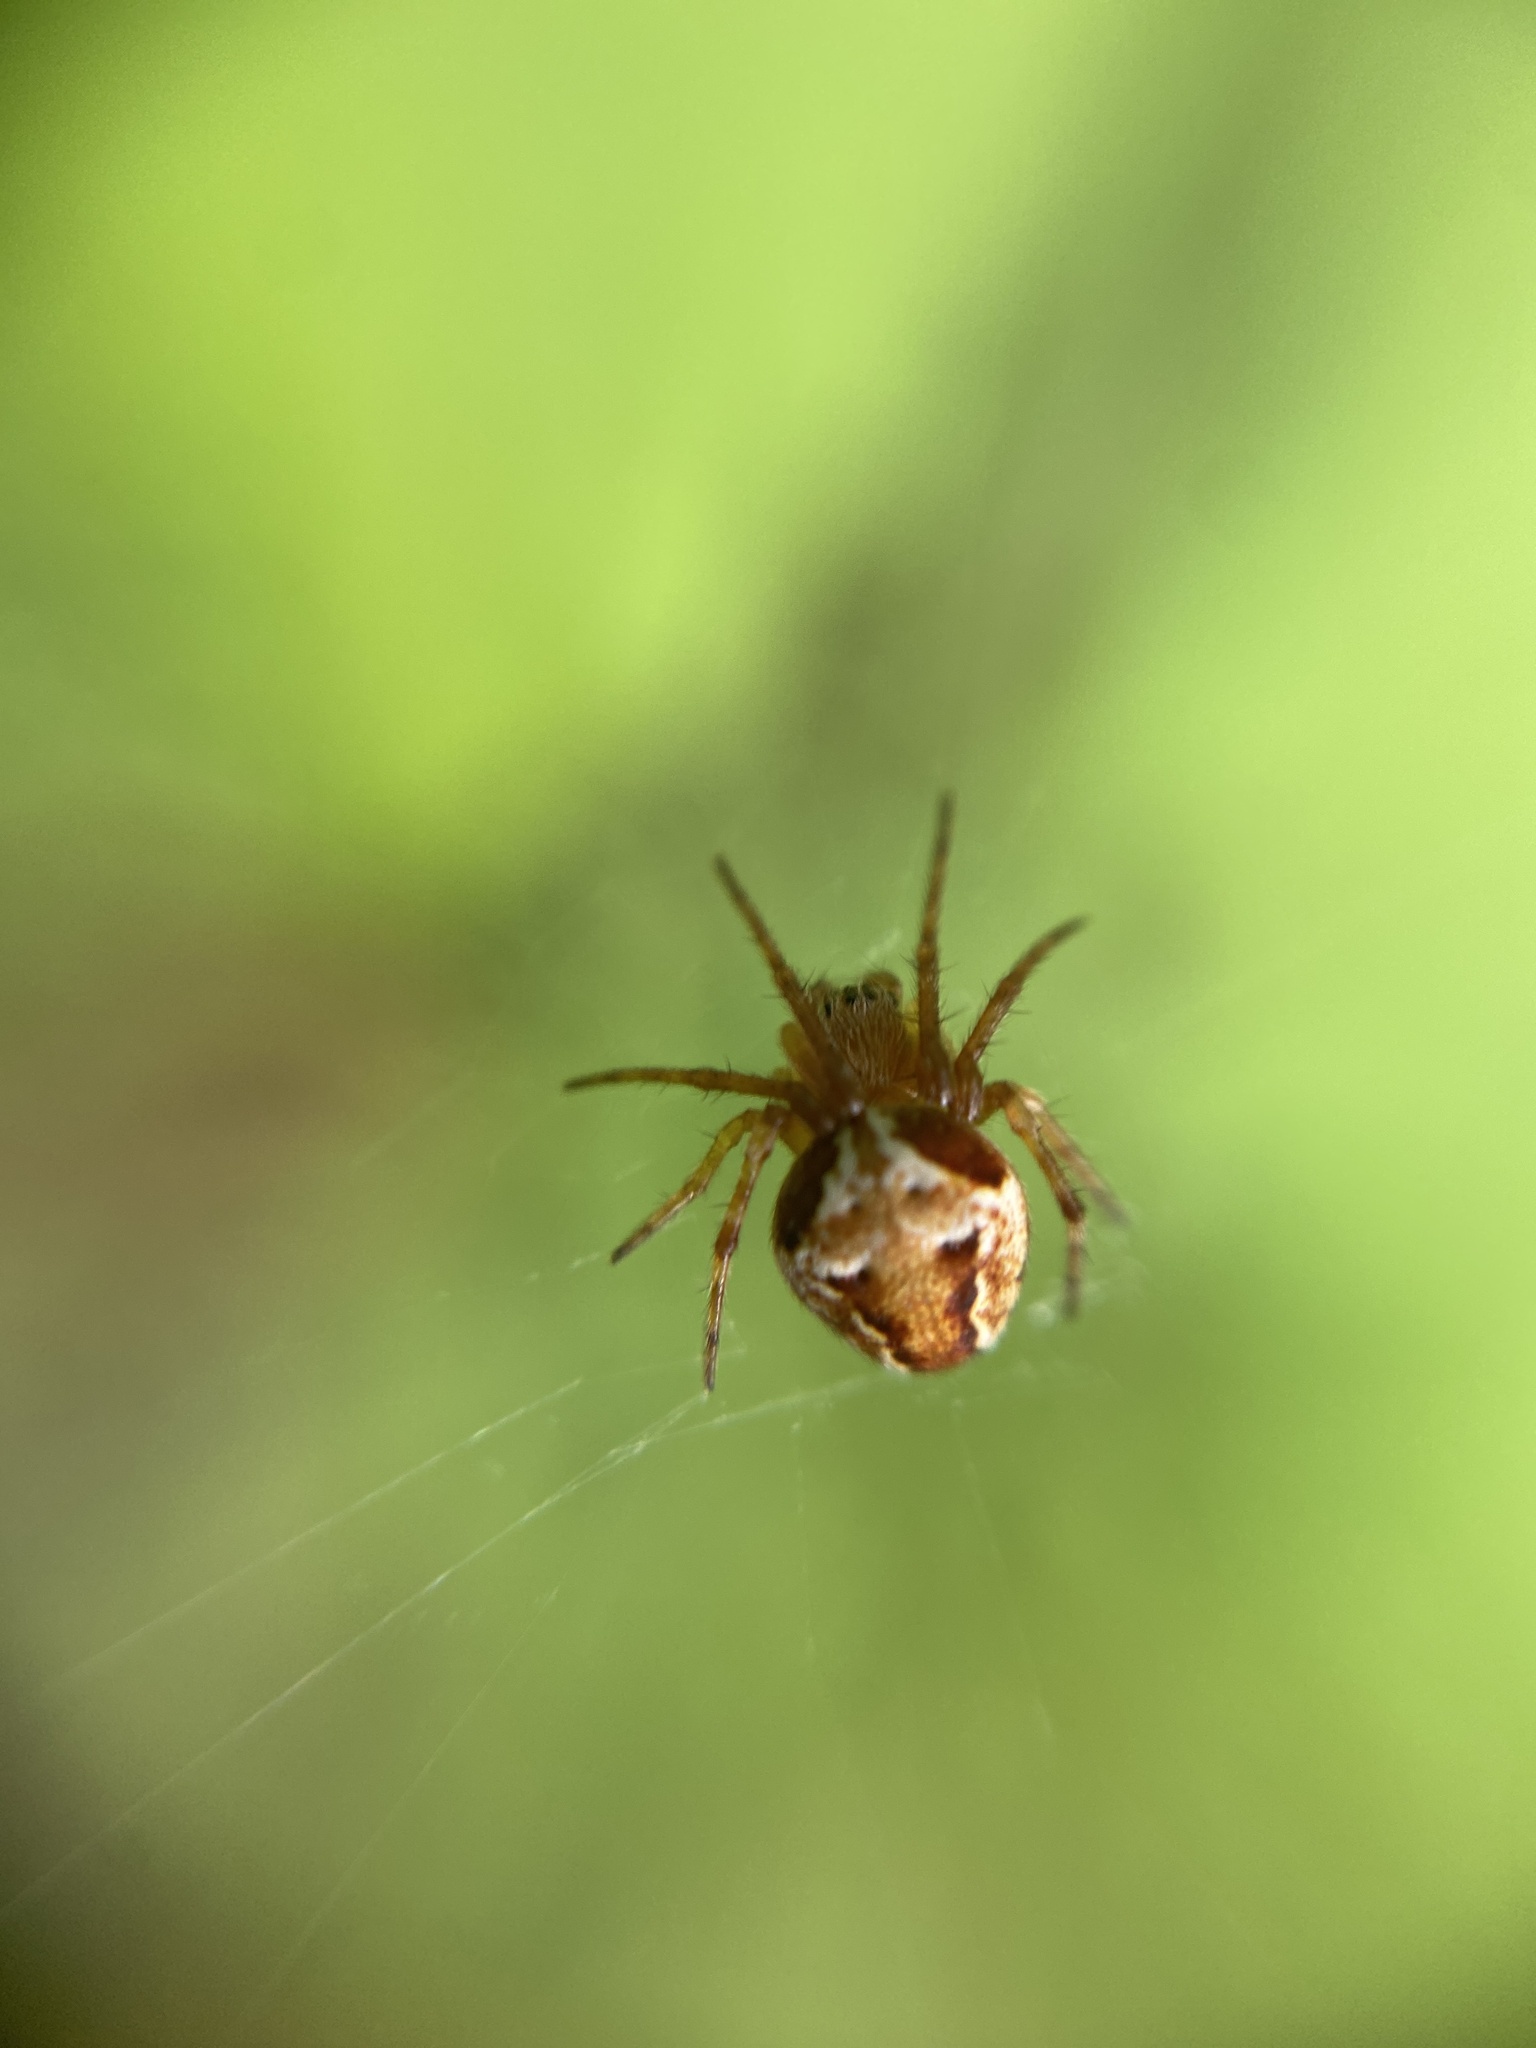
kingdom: Animalia
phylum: Arthropoda
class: Arachnida
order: Araneae
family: Araneidae
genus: Araneus
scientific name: Araneus sturmi
